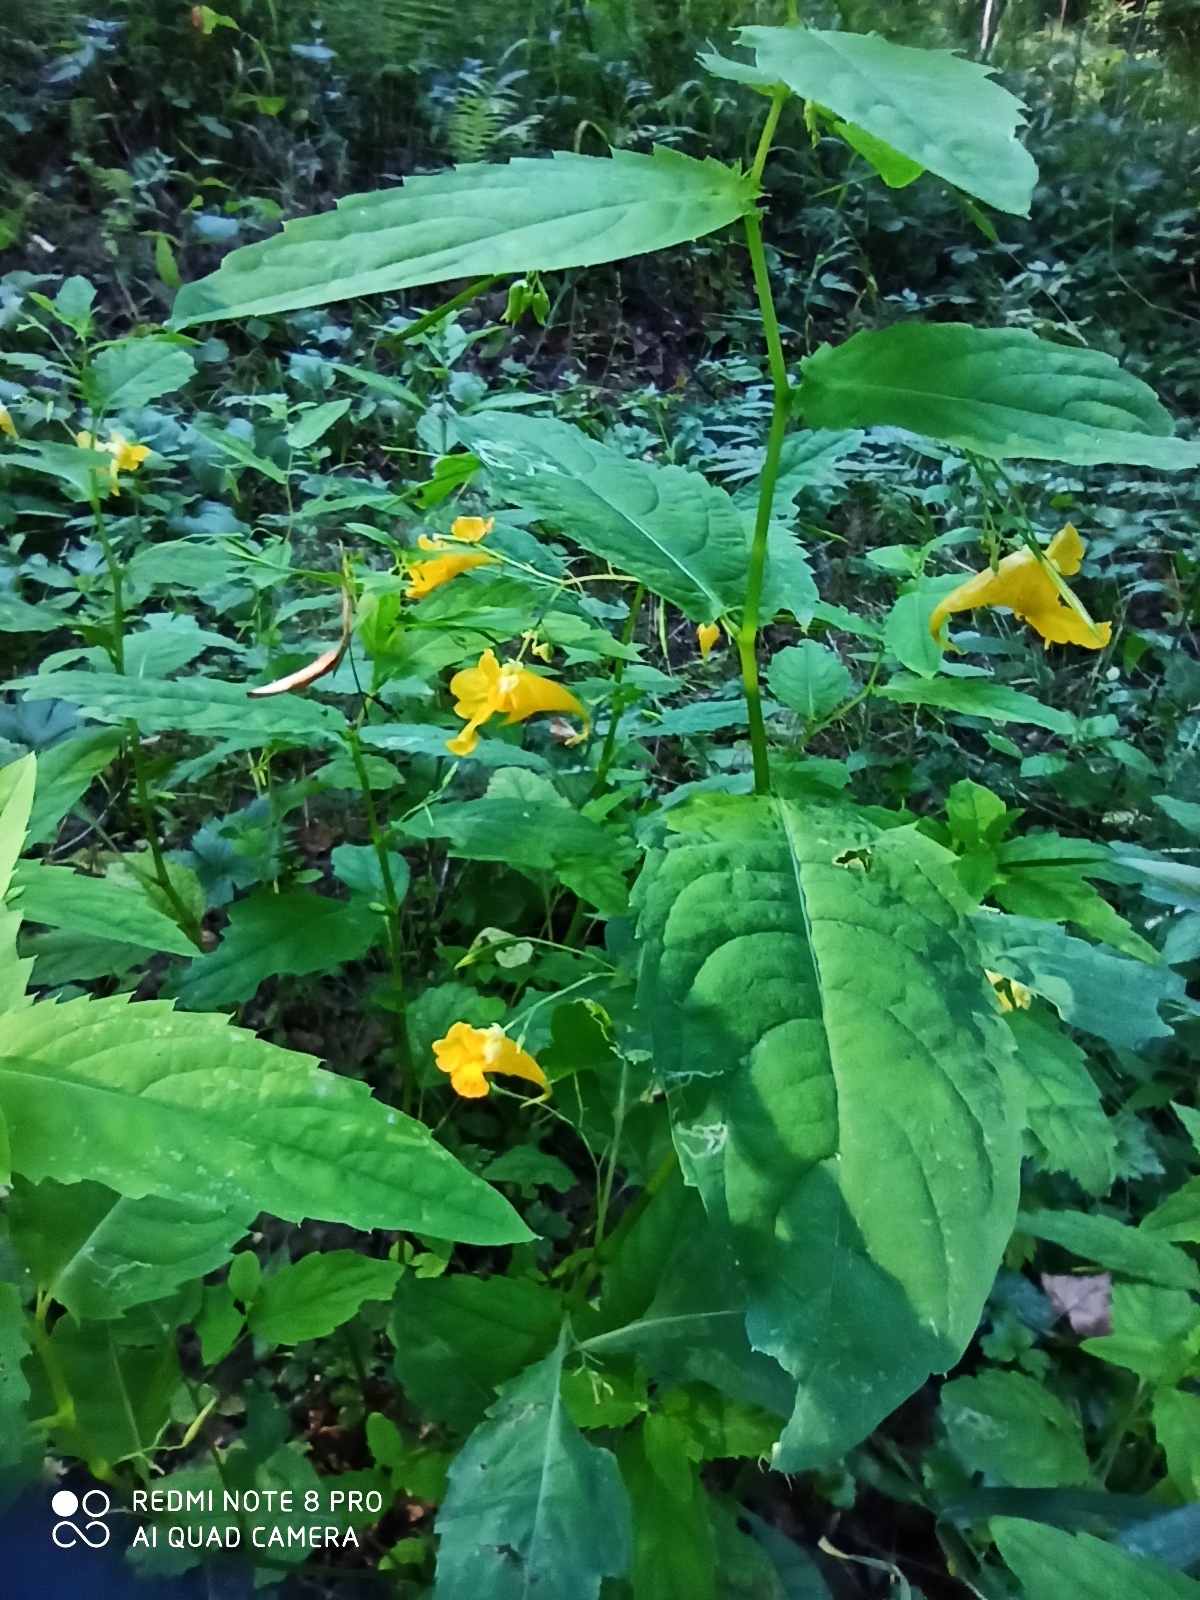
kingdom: Plantae
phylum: Tracheophyta
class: Magnoliopsida
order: Ericales
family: Balsaminaceae
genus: Impatiens
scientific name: Impatiens noli-tangere
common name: Touch-me-not balsam
